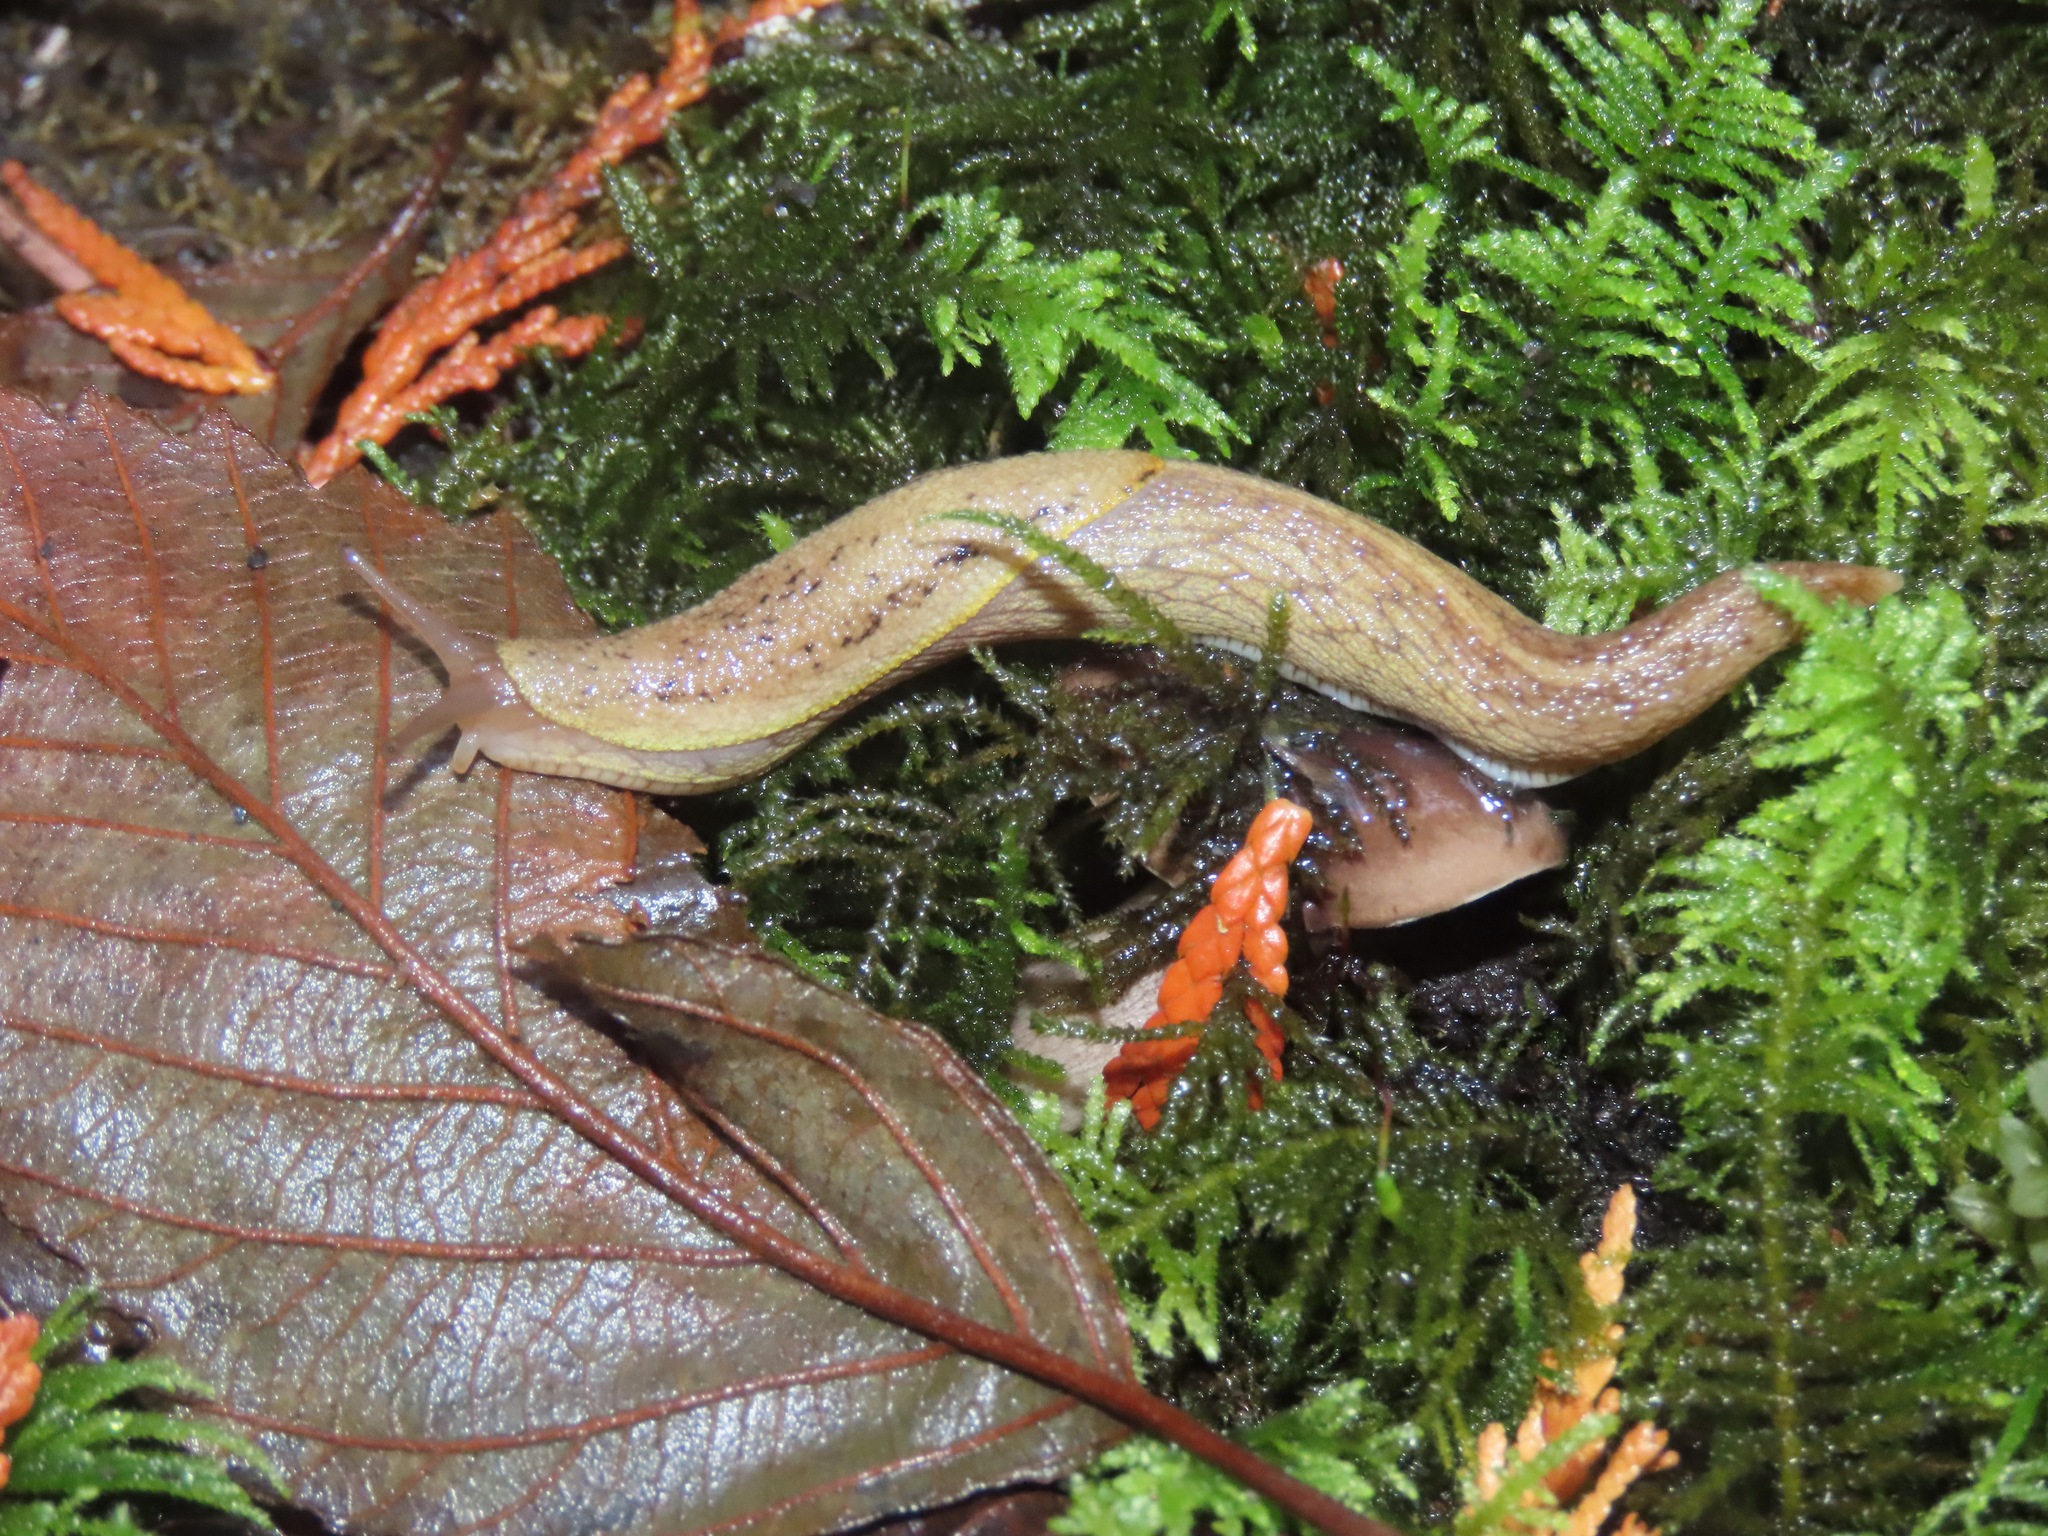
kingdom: Animalia
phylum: Mollusca
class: Gastropoda
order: Stylommatophora
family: Ariolimacidae
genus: Prophysaon
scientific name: Prophysaon foliolatum
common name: Yellow-bordered taildropper
